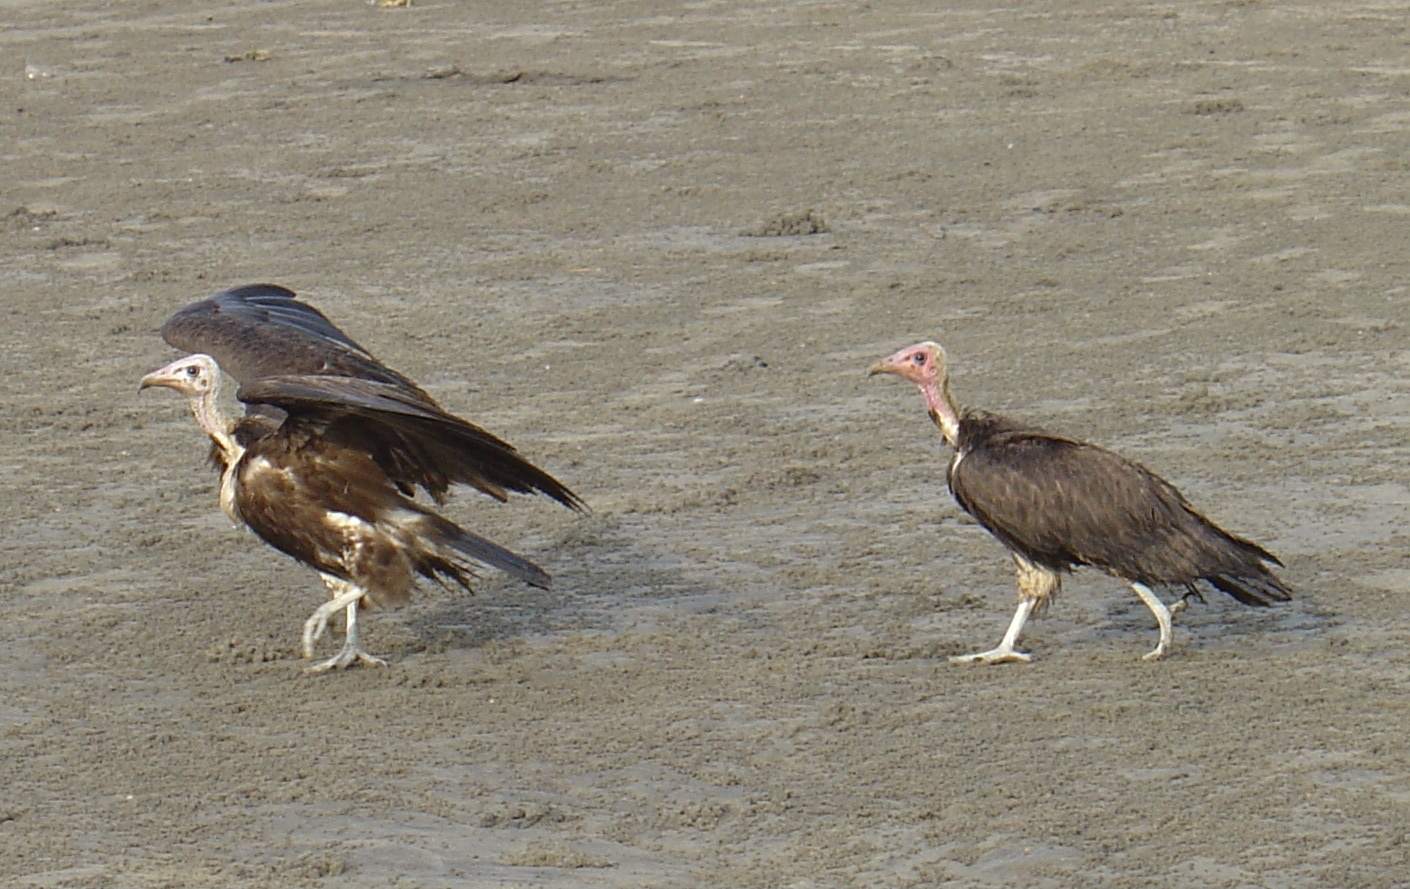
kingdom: Animalia
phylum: Chordata
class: Aves
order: Accipitriformes
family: Accipitridae
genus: Necrosyrtes
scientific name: Necrosyrtes monachus
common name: Hooded vulture
